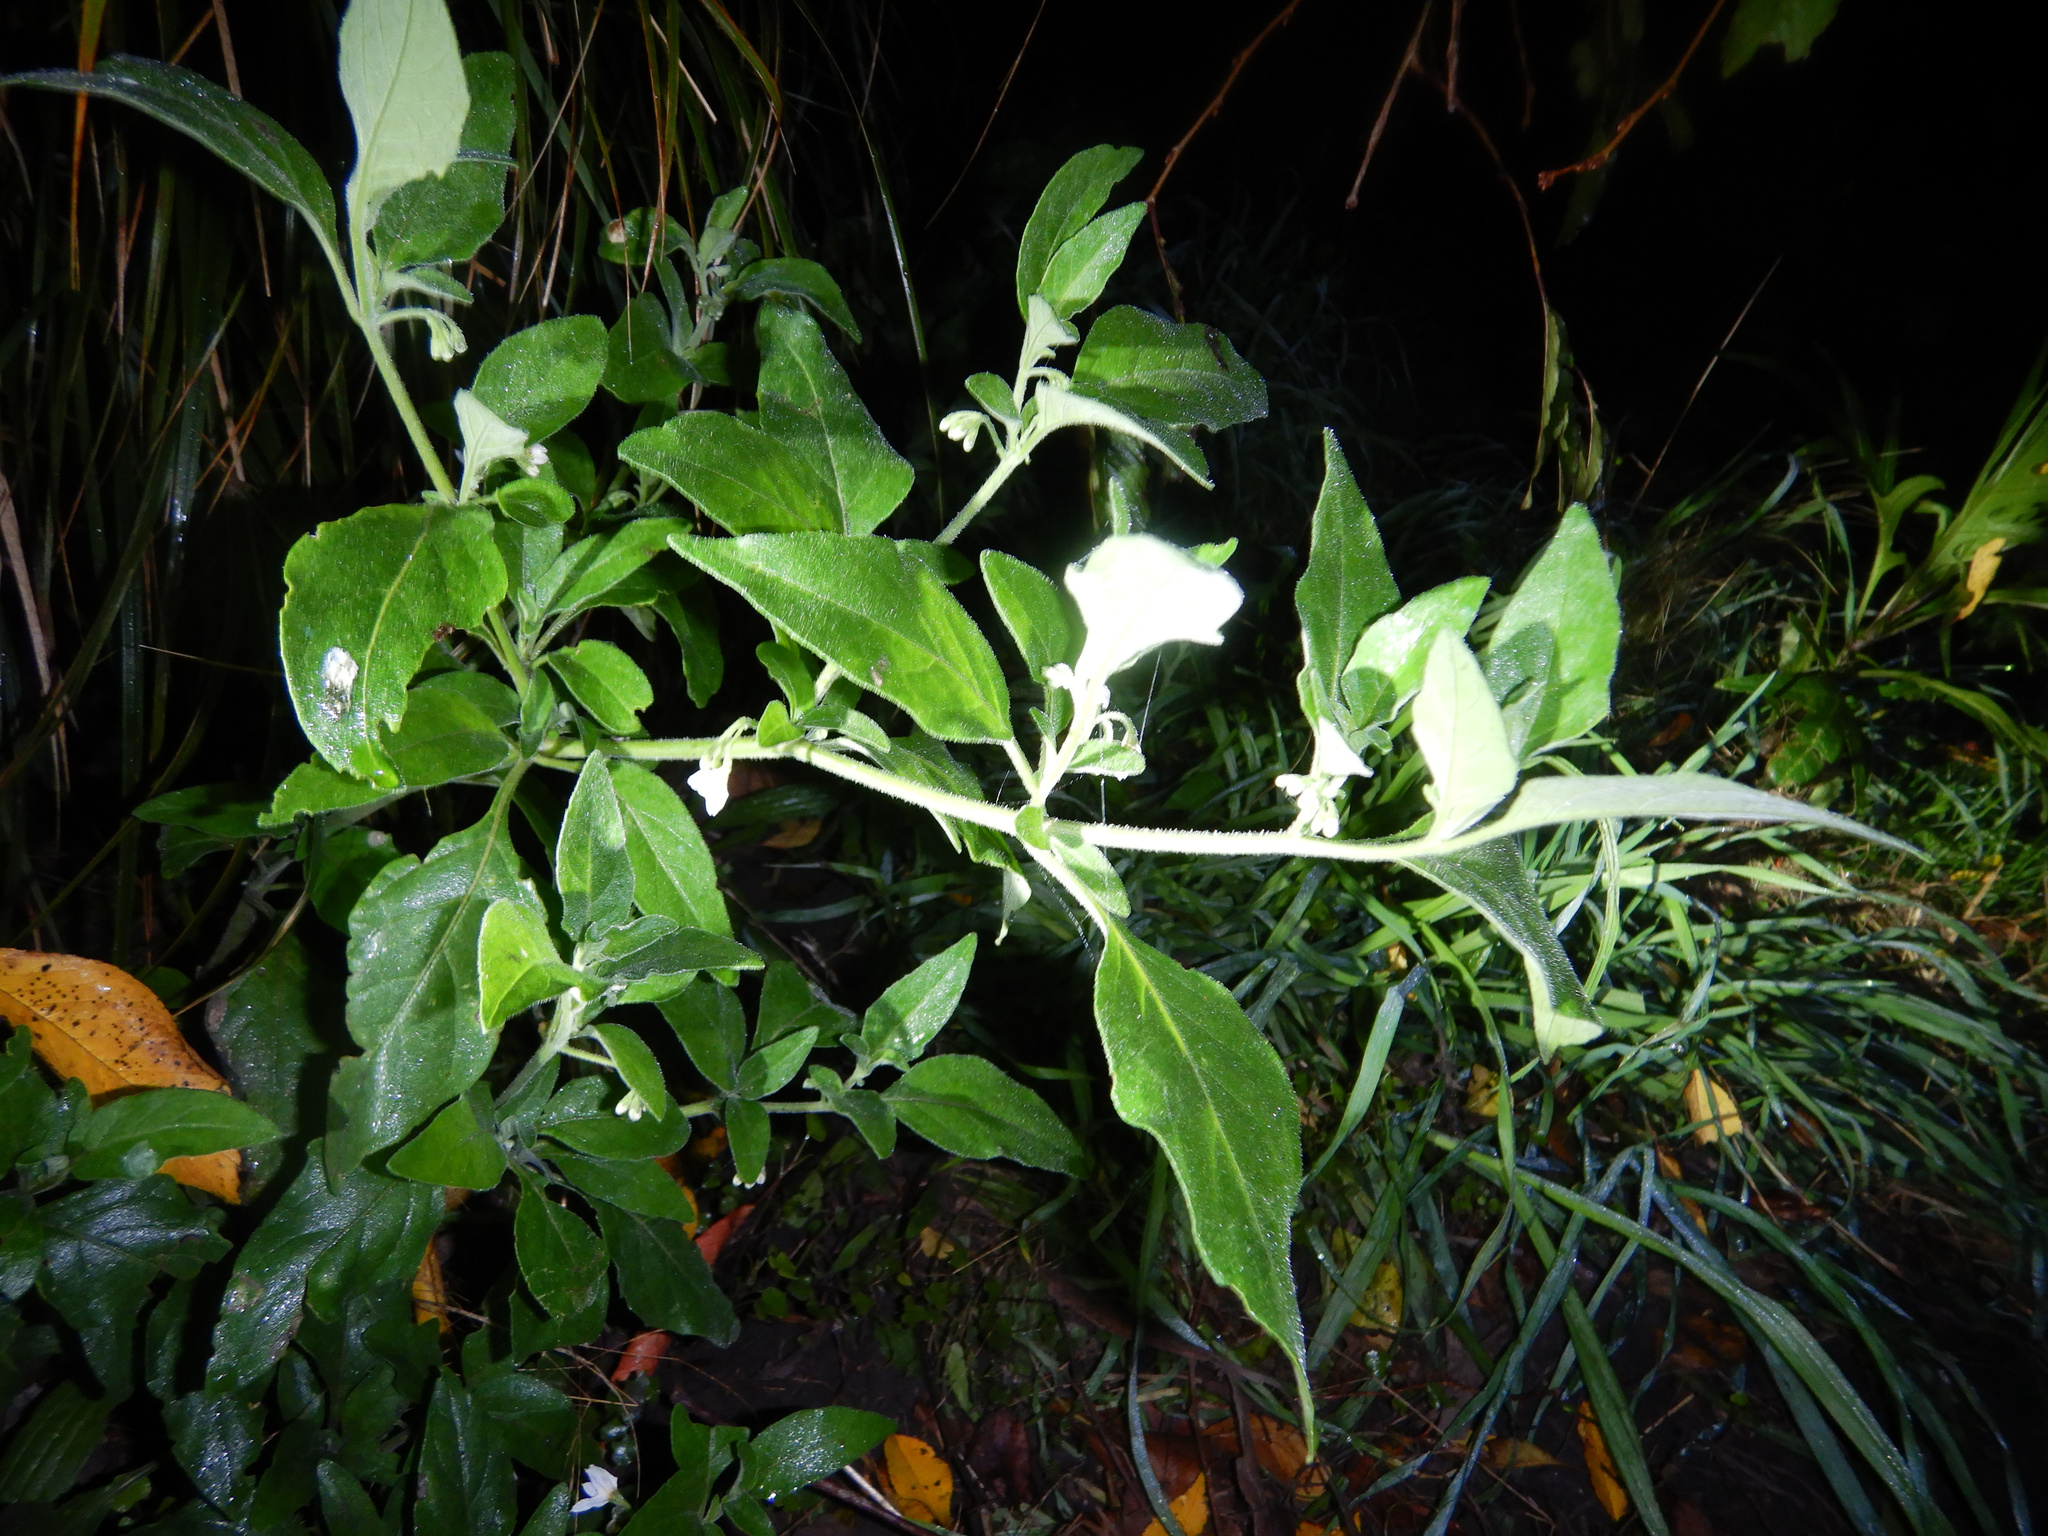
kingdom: Plantae
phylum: Tracheophyta
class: Magnoliopsida
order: Solanales
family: Solanaceae
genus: Solanum
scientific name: Solanum chenopodioides
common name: Tall nightshade
